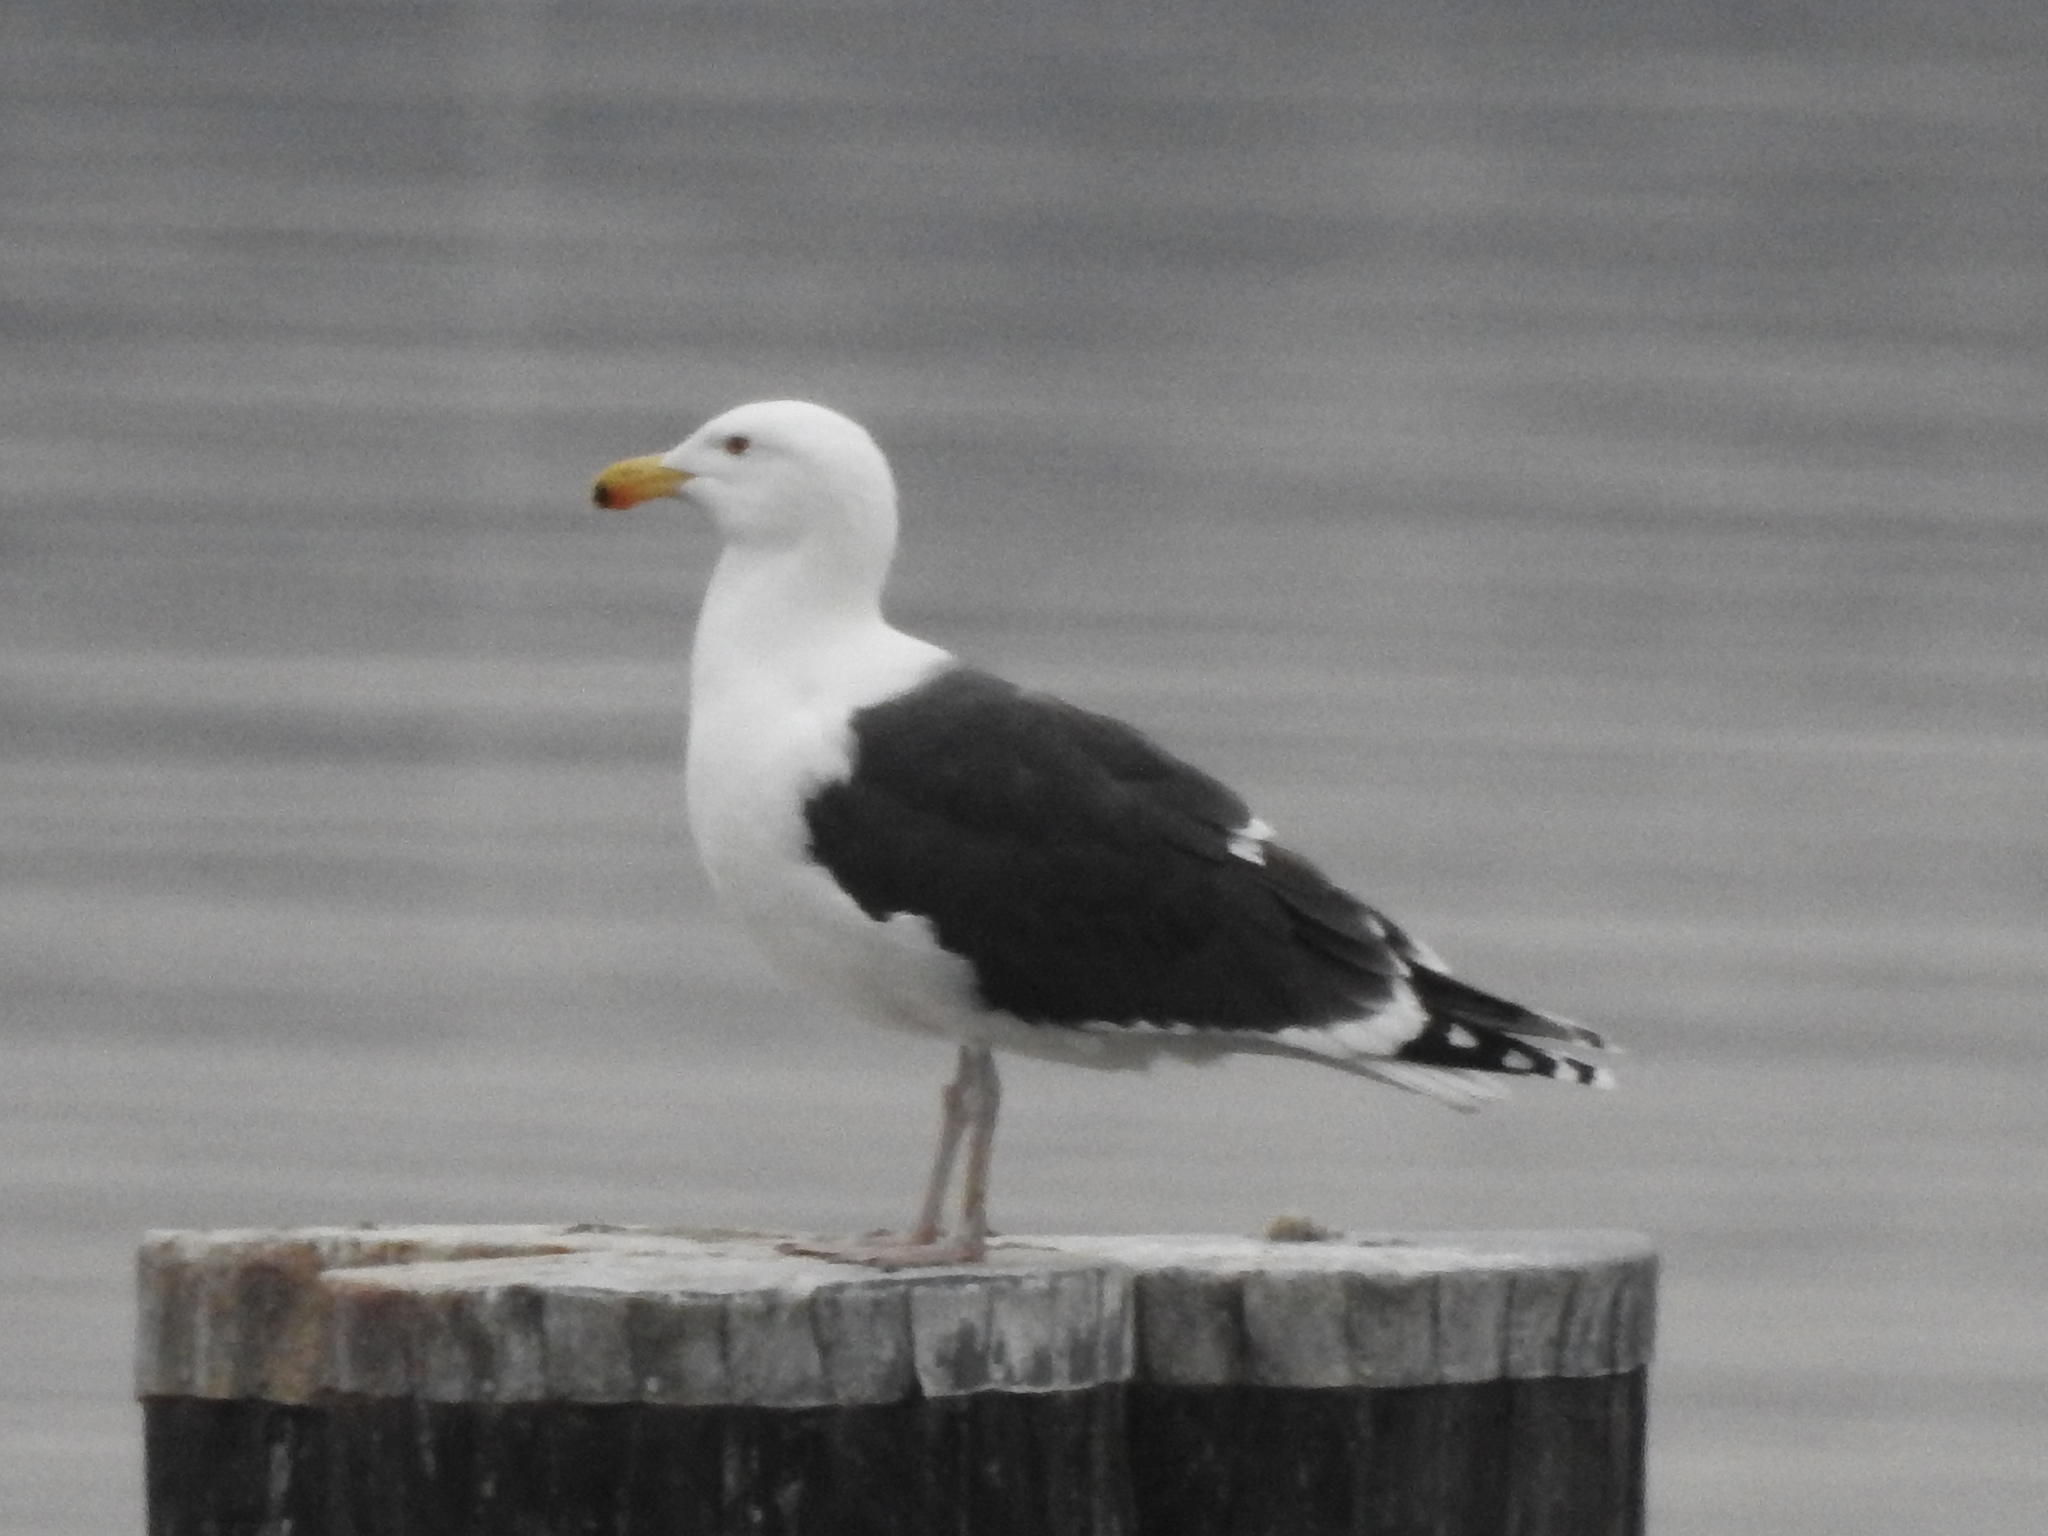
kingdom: Animalia
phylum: Chordata
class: Aves
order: Charadriiformes
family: Laridae
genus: Larus
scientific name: Larus marinus
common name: Great black-backed gull
